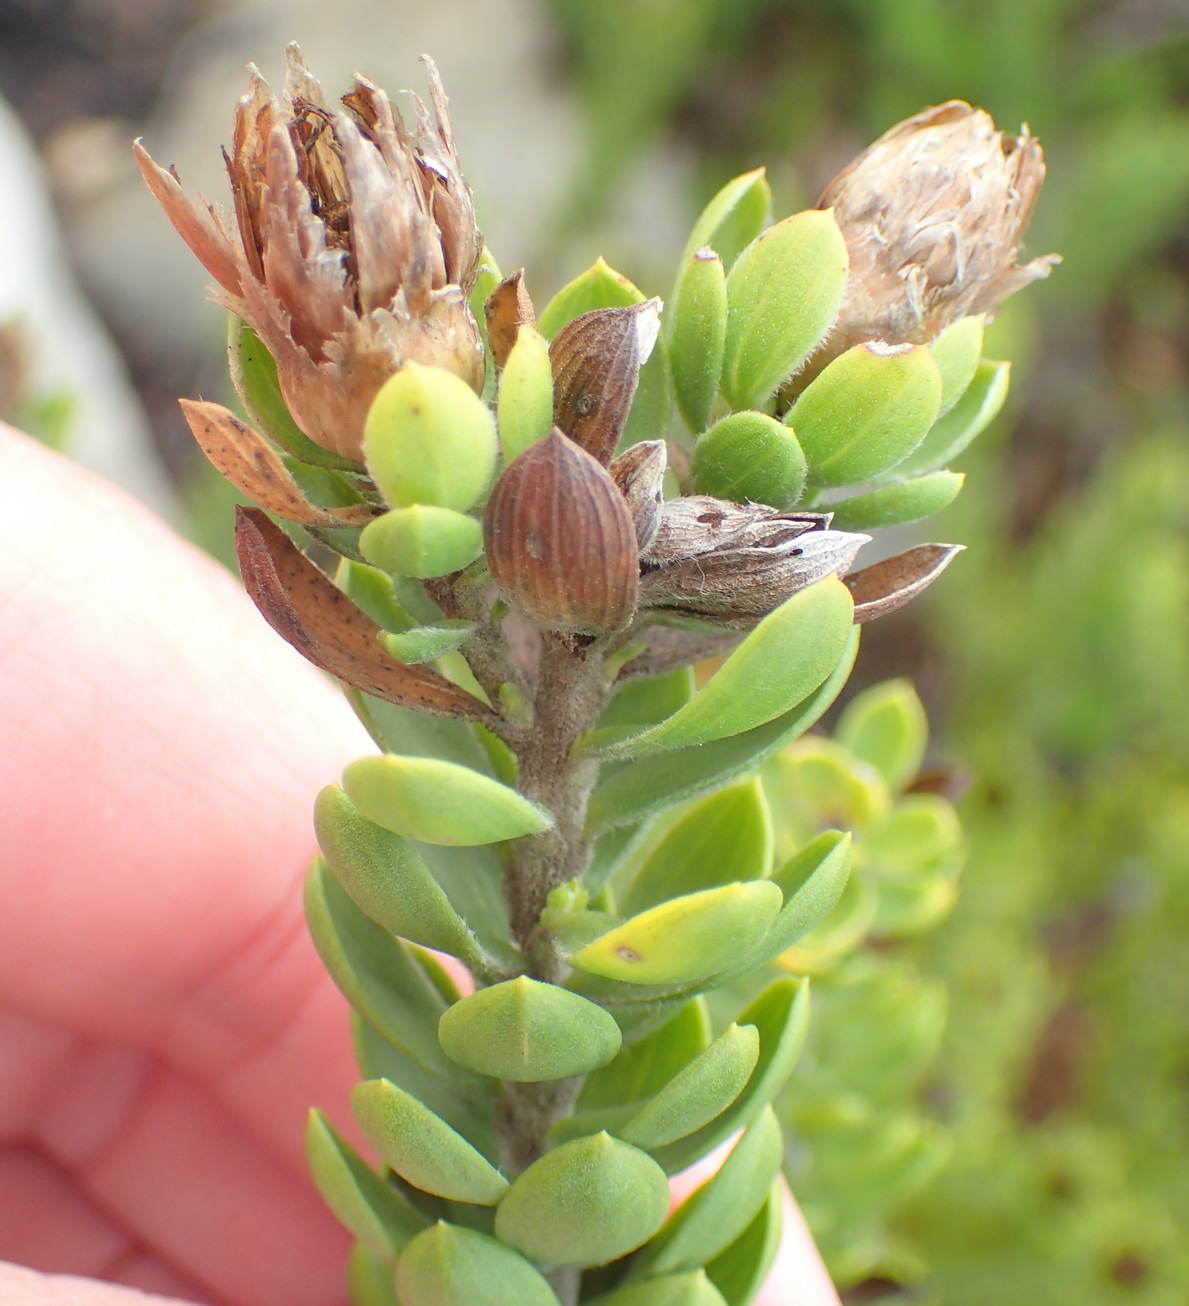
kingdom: Plantae
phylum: Tracheophyta
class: Magnoliopsida
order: Asterales
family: Asteraceae
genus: Oedera
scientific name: Oedera calycina
